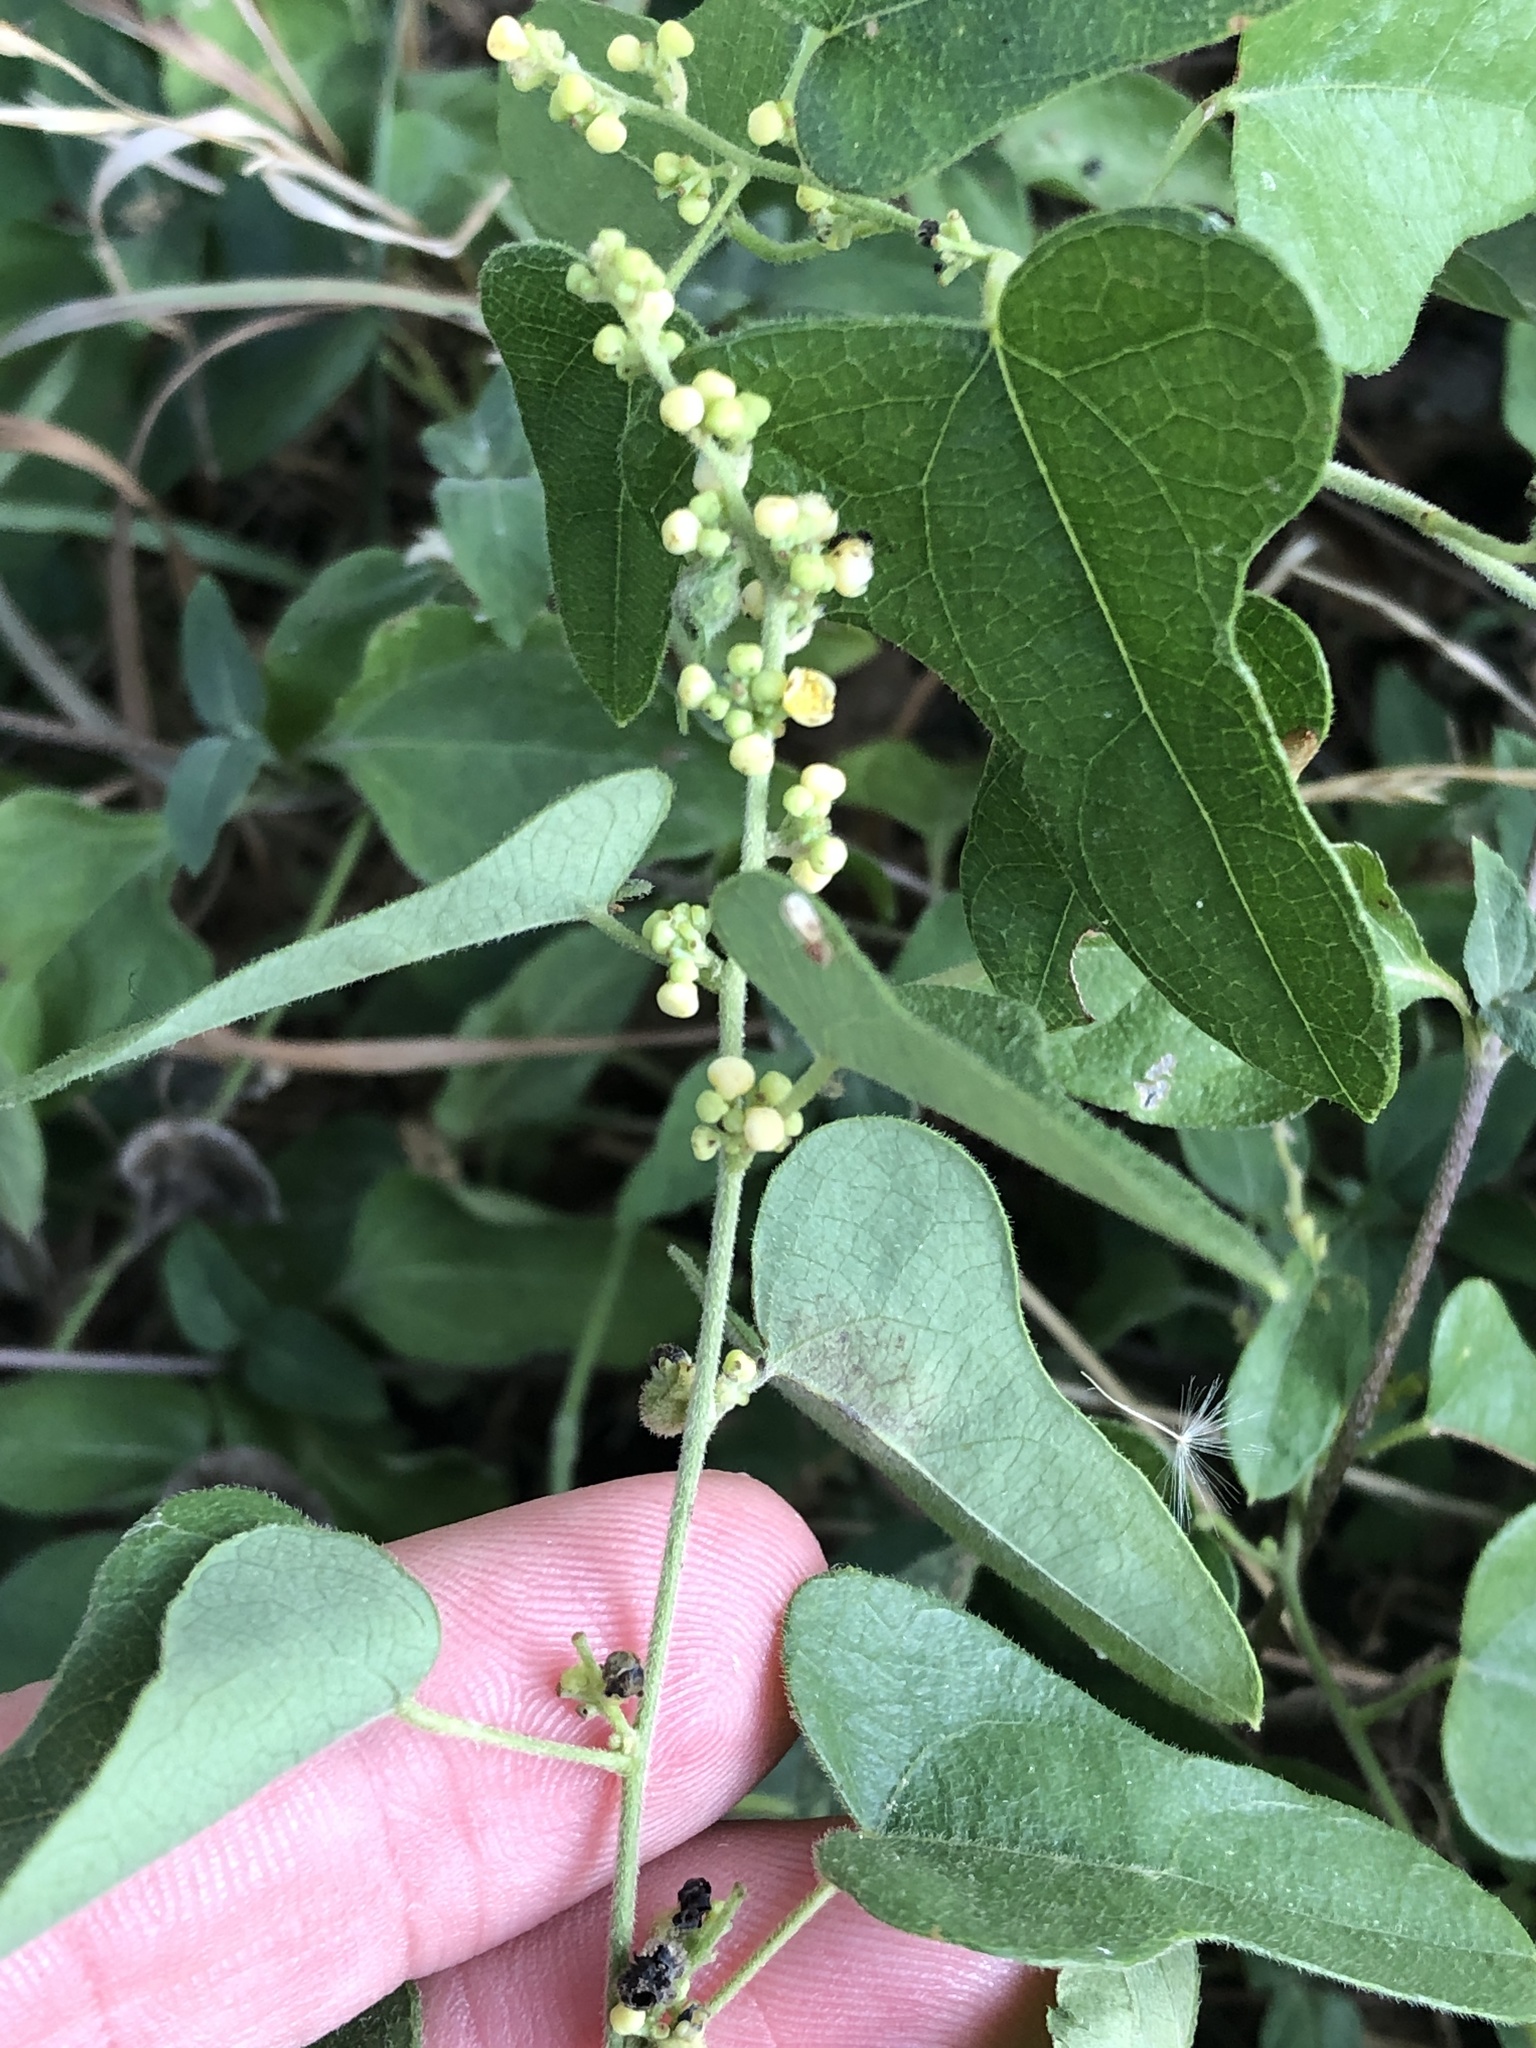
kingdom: Plantae
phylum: Tracheophyta
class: Magnoliopsida
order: Ranunculales
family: Menispermaceae
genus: Cocculus
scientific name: Cocculus carolinus
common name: Carolina moonseed
